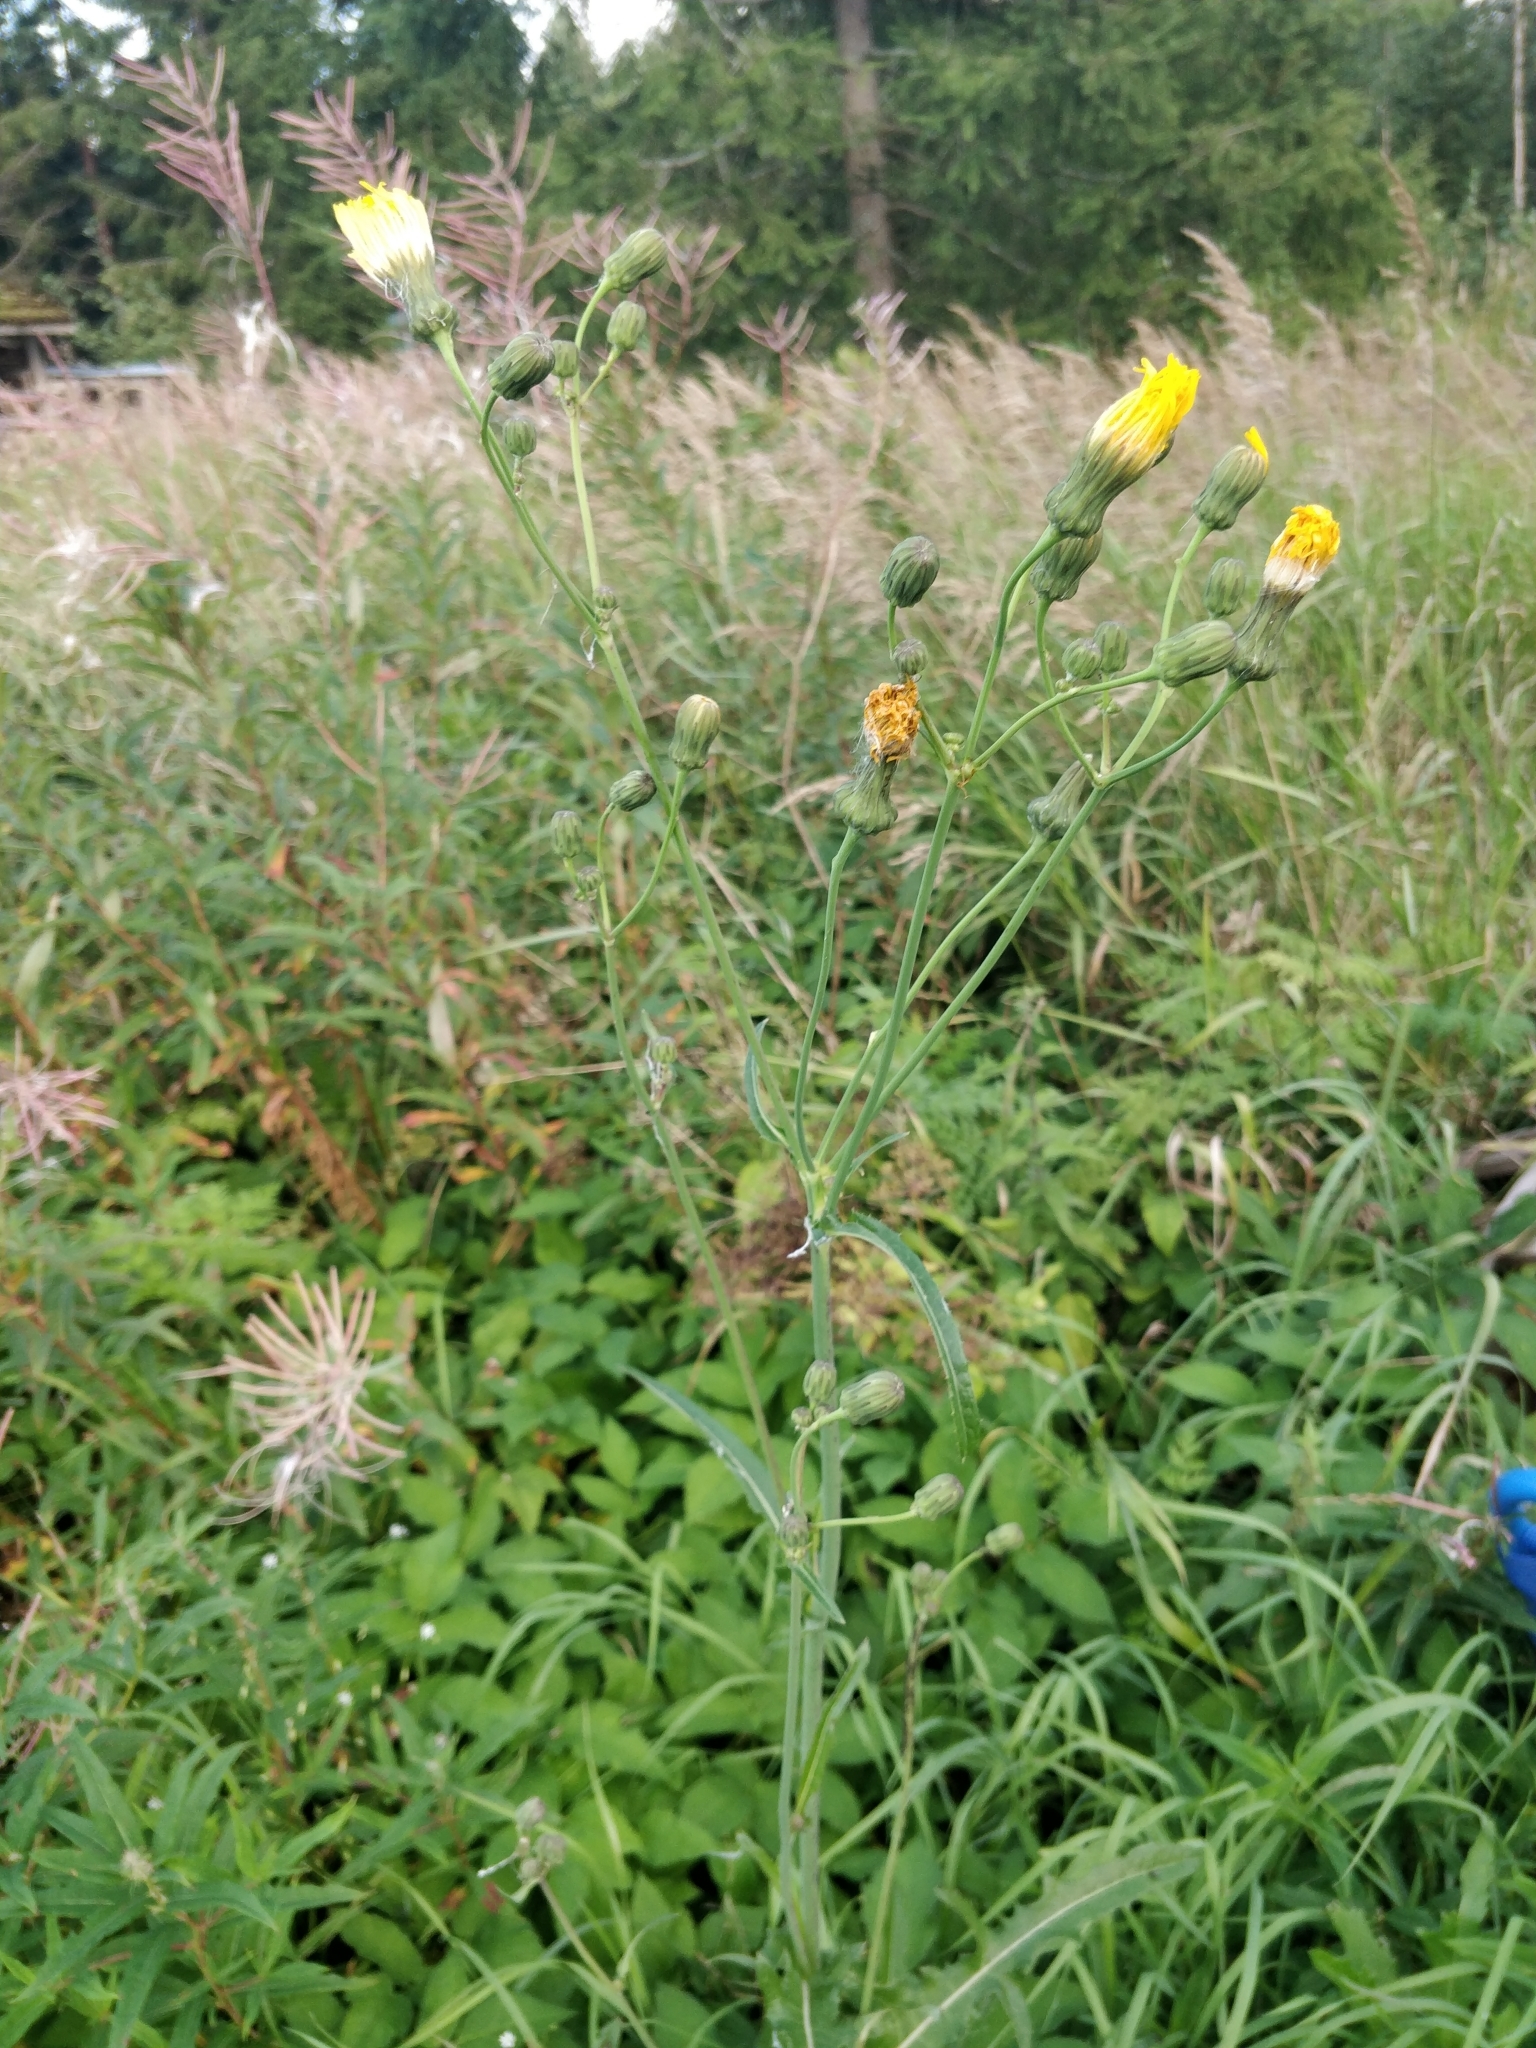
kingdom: Plantae
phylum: Tracheophyta
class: Magnoliopsida
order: Asterales
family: Asteraceae
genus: Sonchus
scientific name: Sonchus arvensis
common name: Perennial sow-thistle
